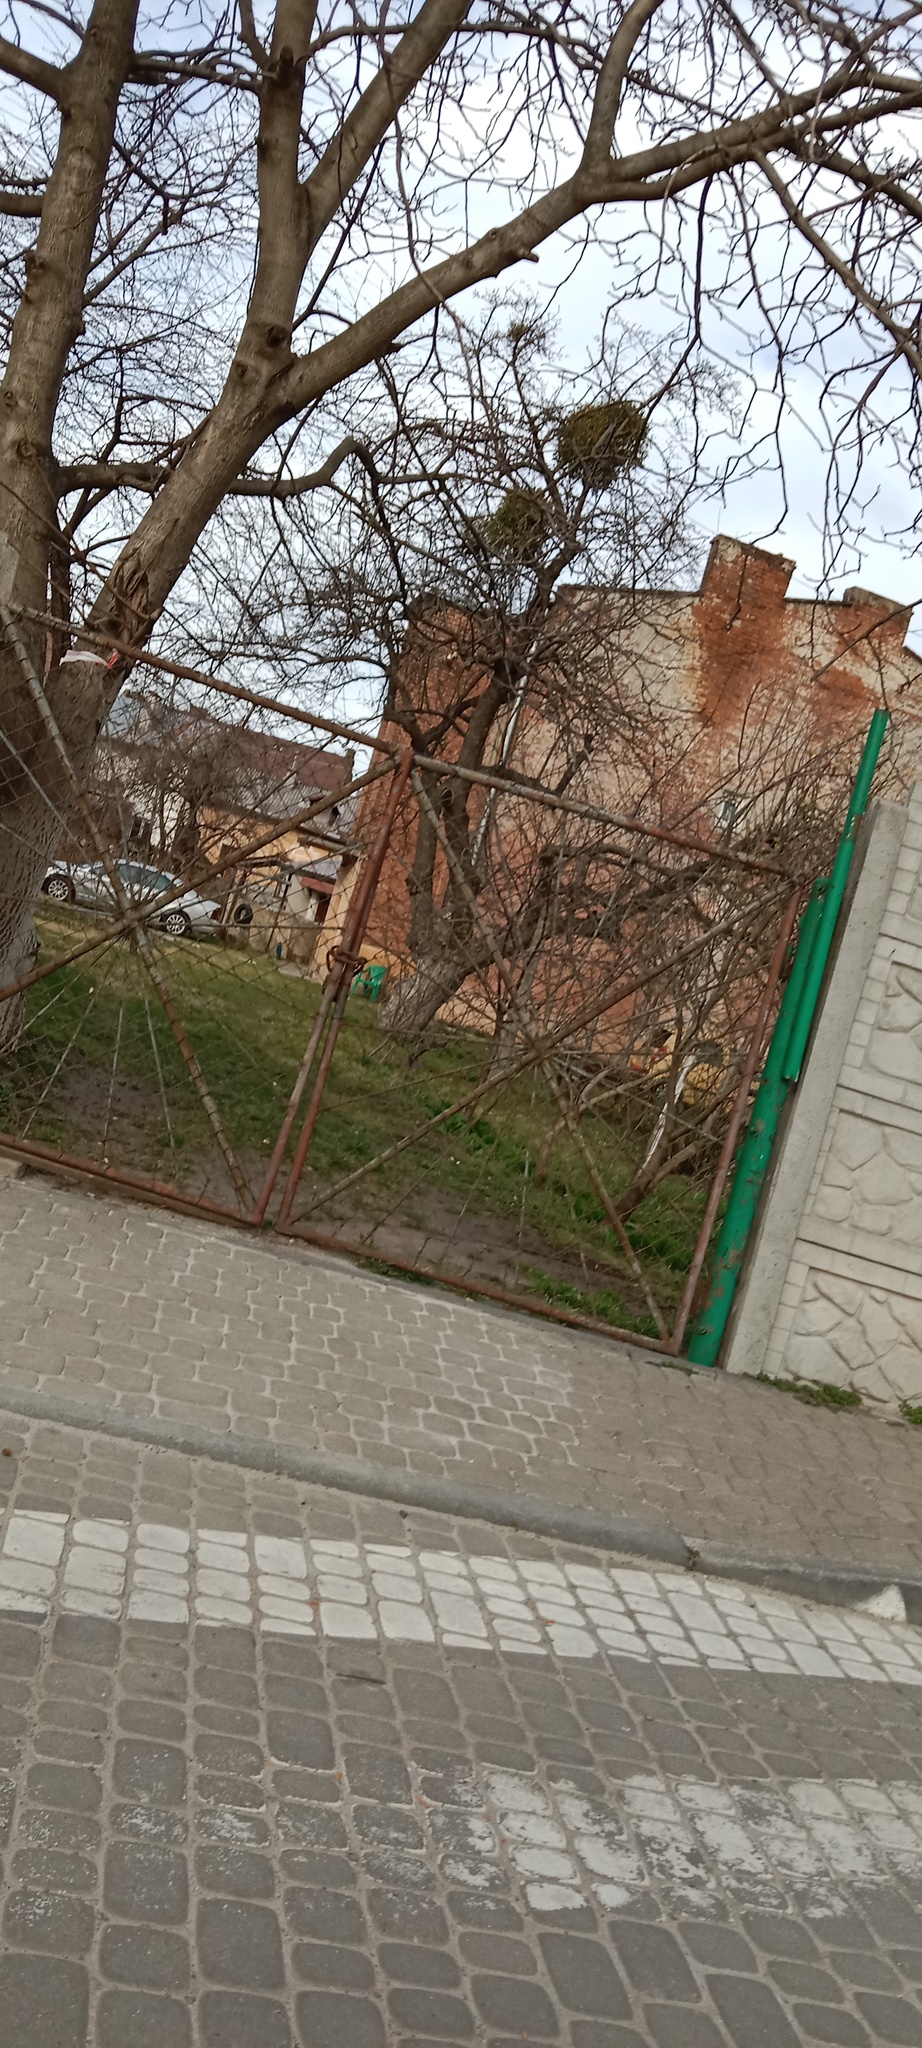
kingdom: Plantae
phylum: Tracheophyta
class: Magnoliopsida
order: Santalales
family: Viscaceae
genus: Viscum
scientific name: Viscum album
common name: Mistletoe
